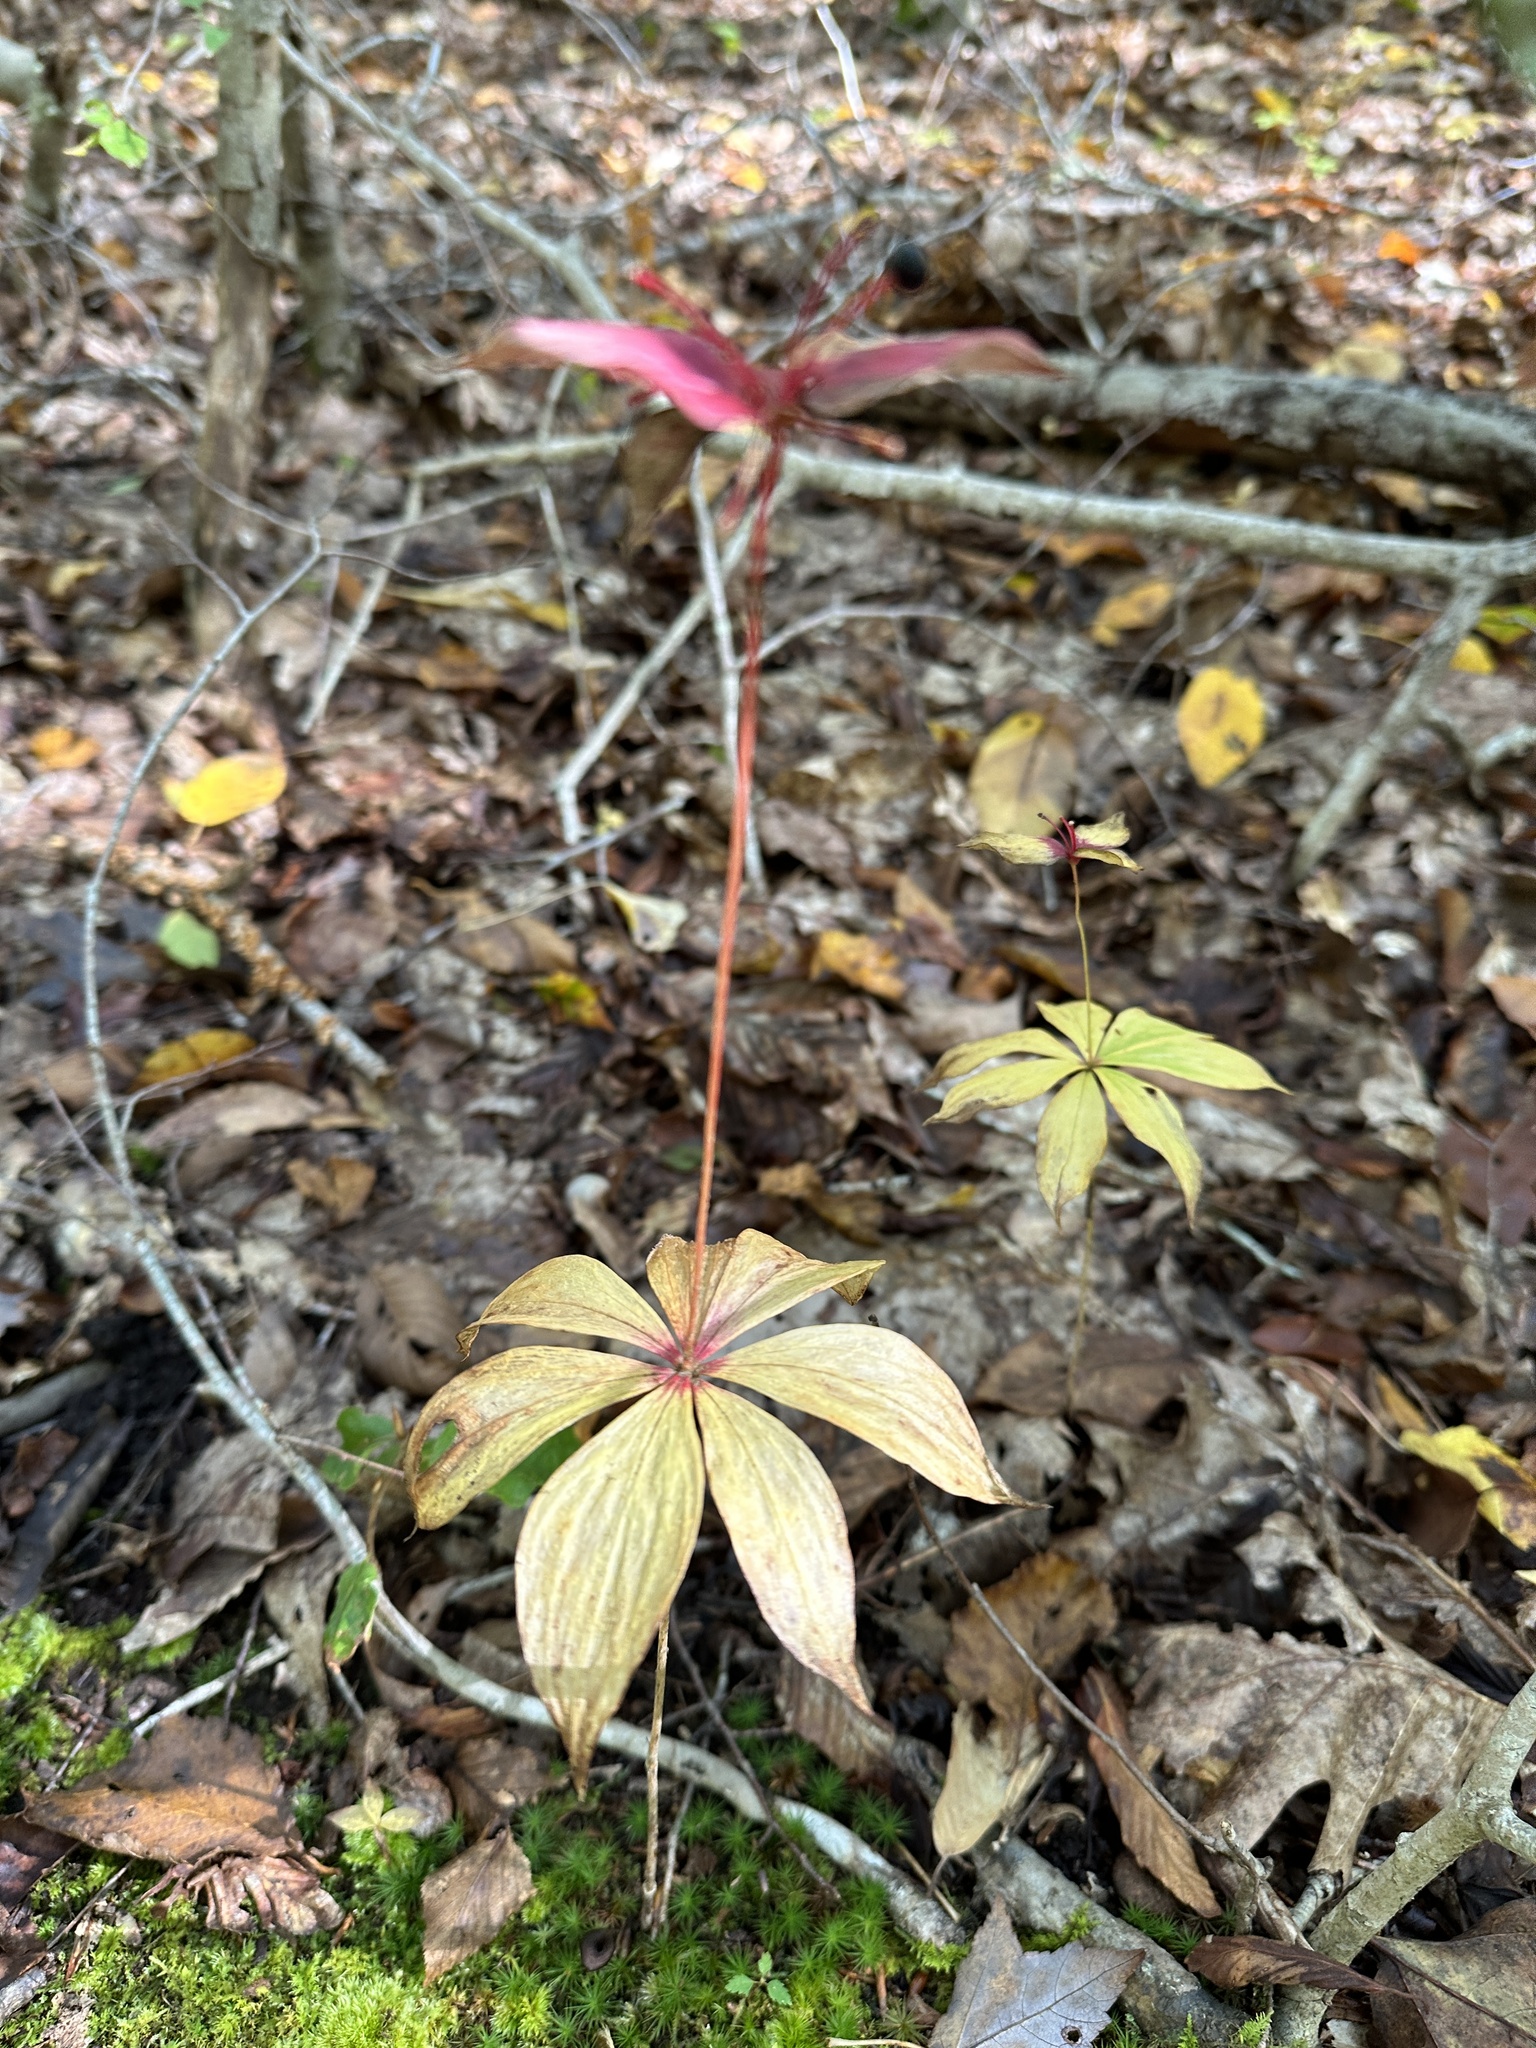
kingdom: Plantae
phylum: Tracheophyta
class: Liliopsida
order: Liliales
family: Liliaceae
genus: Medeola
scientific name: Medeola virginiana
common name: Indian cucumber-root
